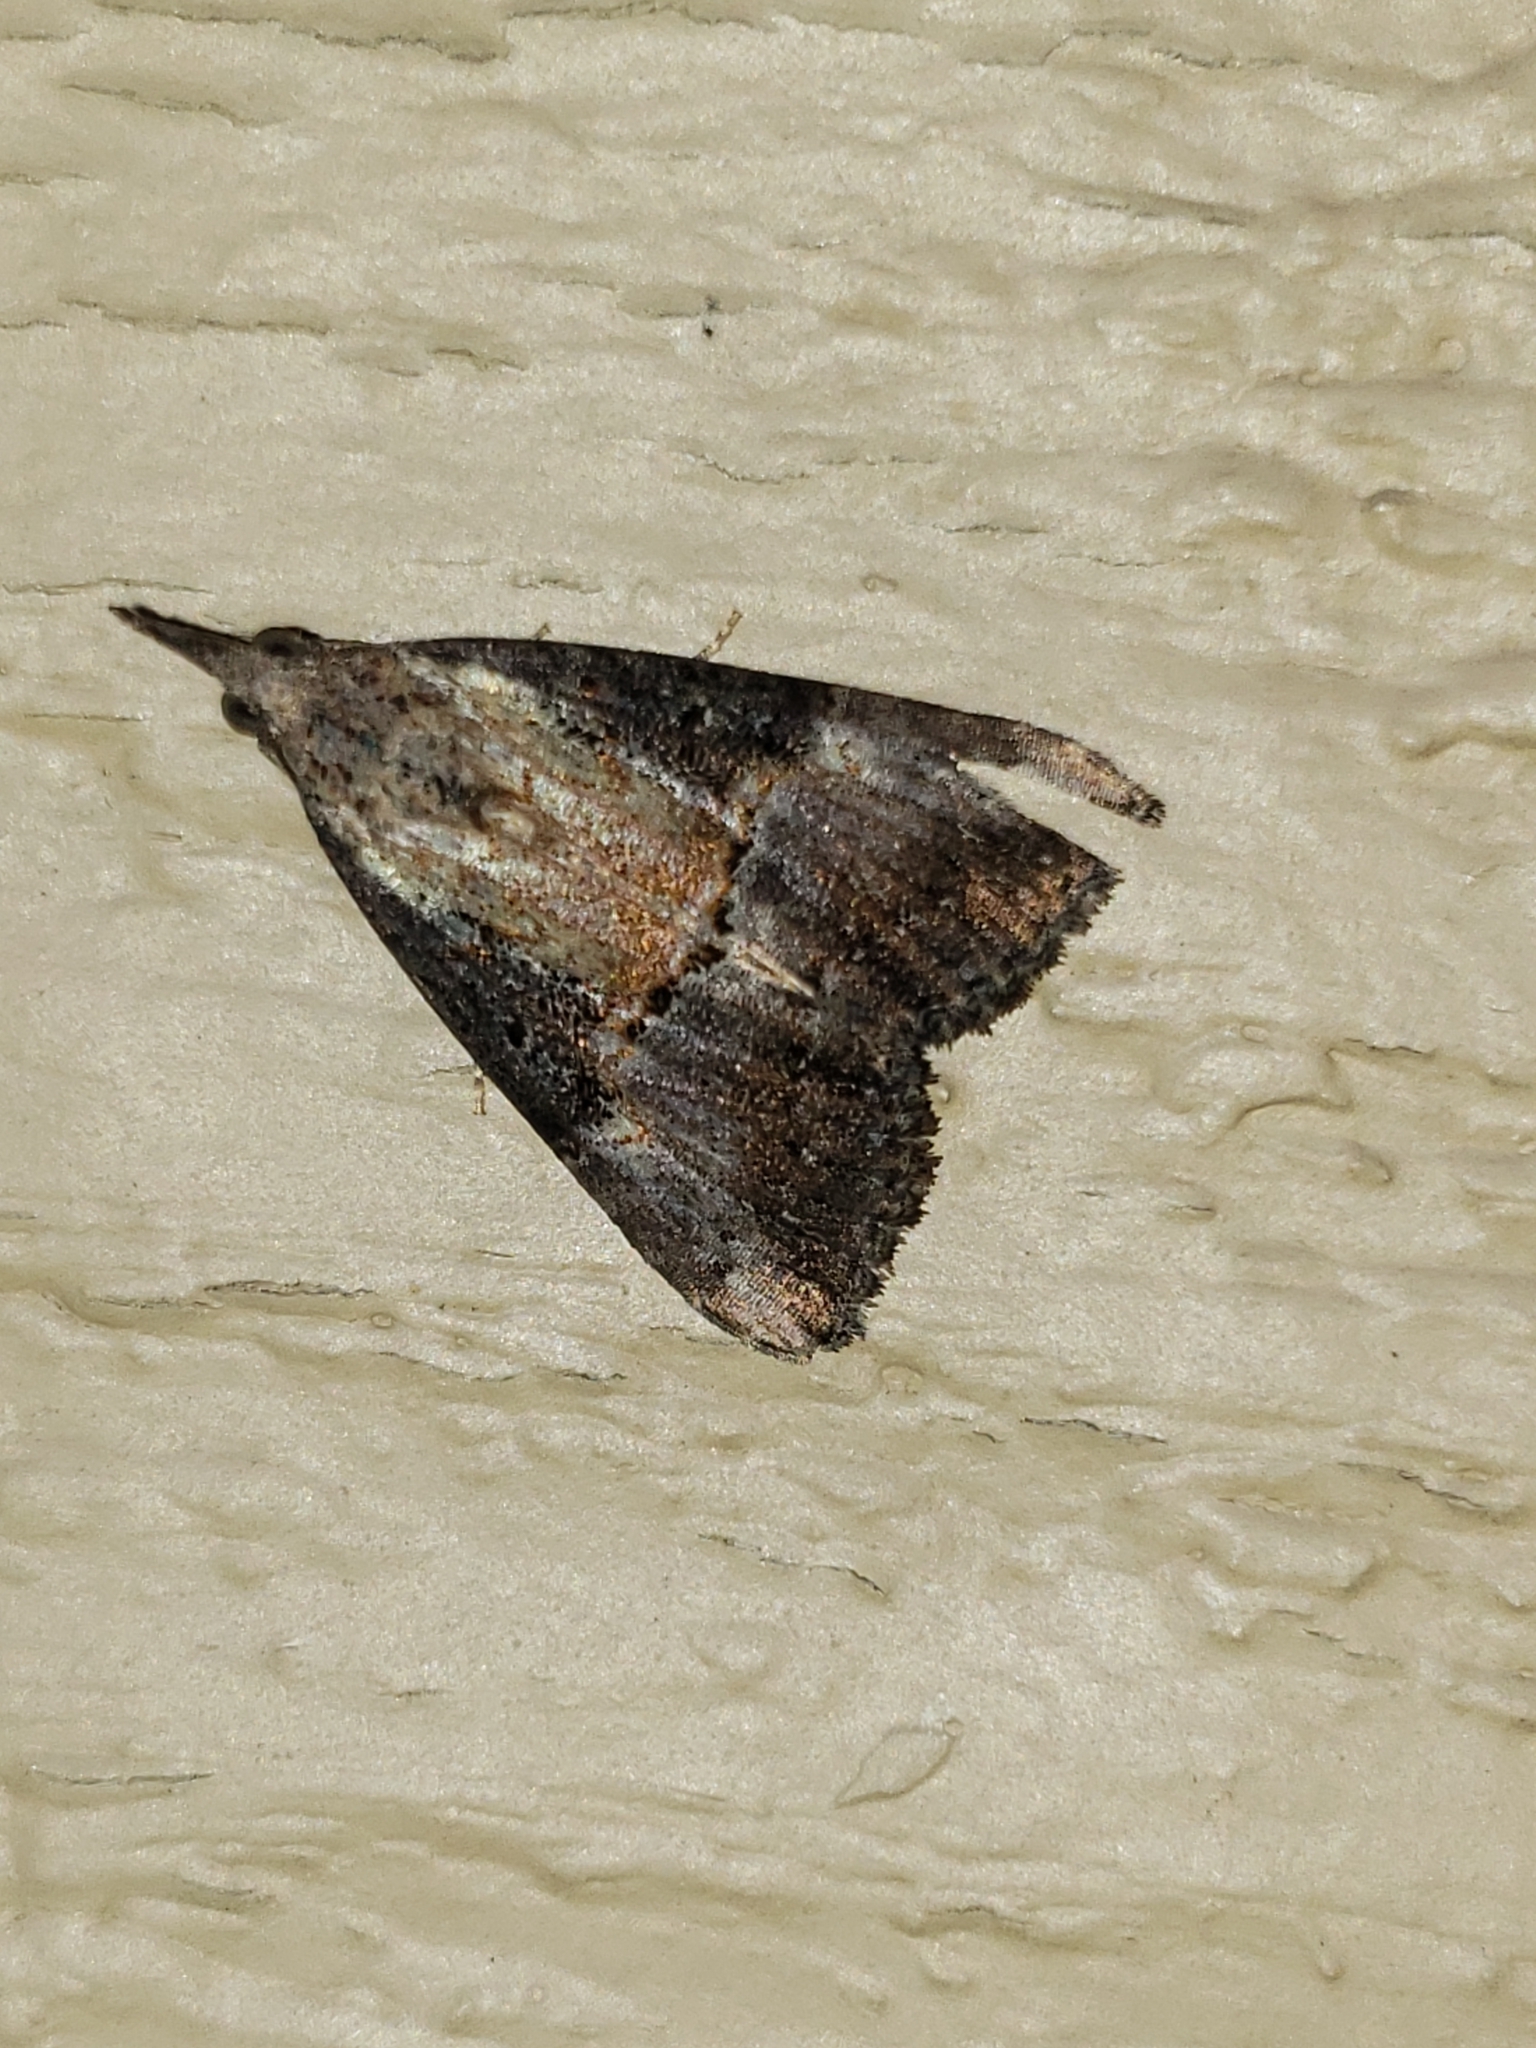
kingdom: Animalia
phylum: Arthropoda
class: Insecta
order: Lepidoptera
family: Erebidae
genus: Hypena
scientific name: Hypena scabra
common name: Green cloverworm
